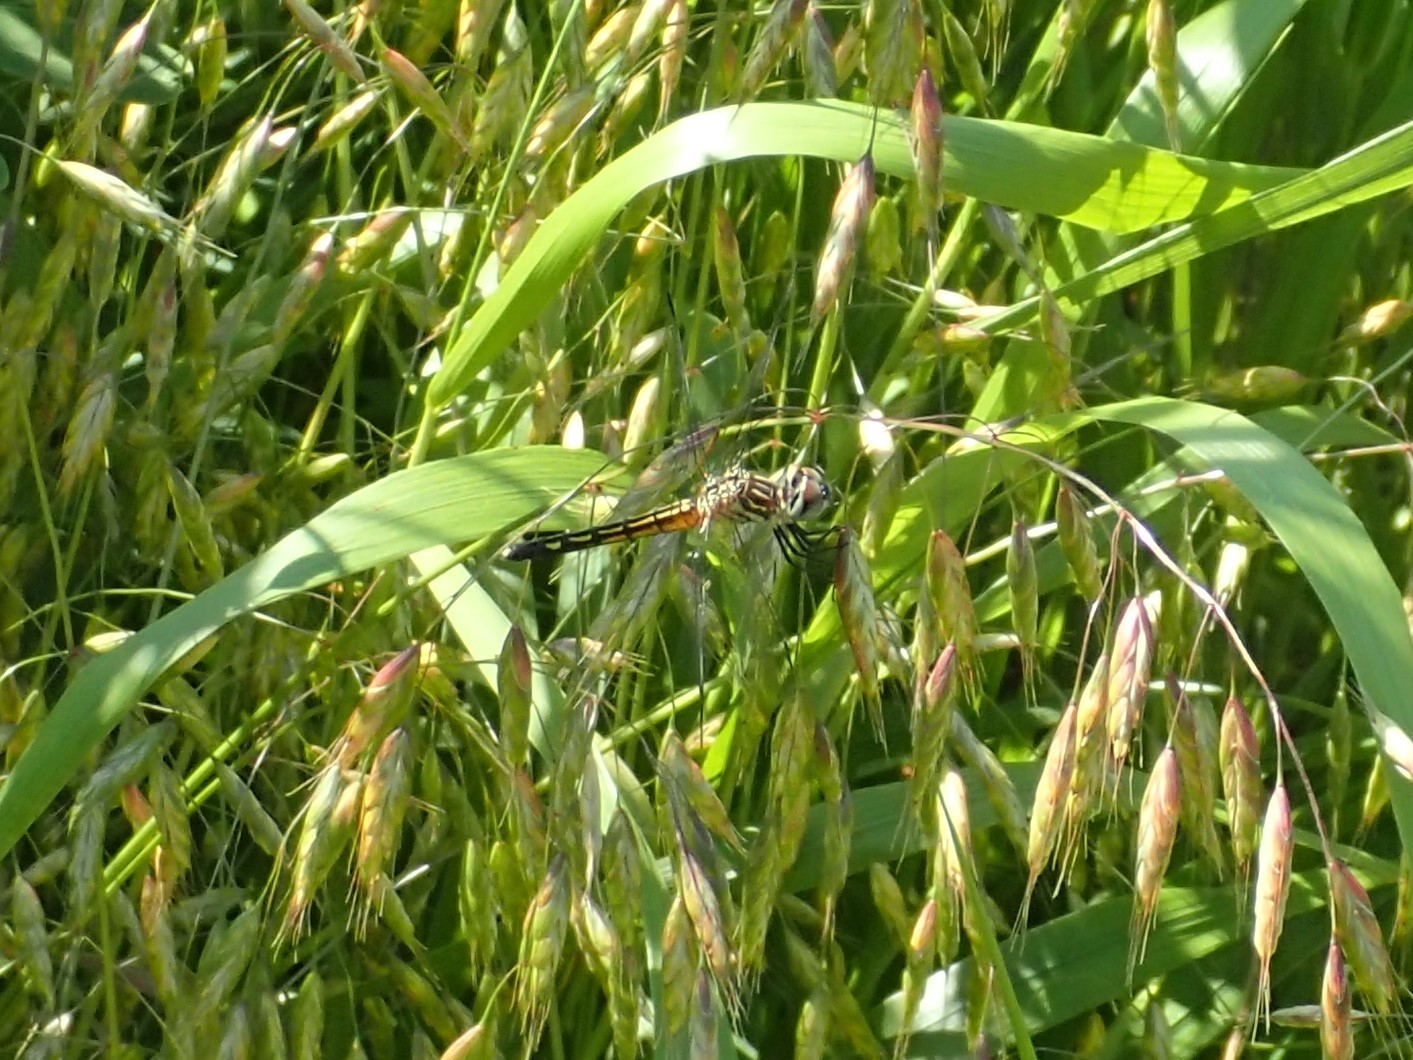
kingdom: Animalia
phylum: Arthropoda
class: Insecta
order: Odonata
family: Libellulidae
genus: Pachydiplax
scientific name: Pachydiplax longipennis
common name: Blue dasher
